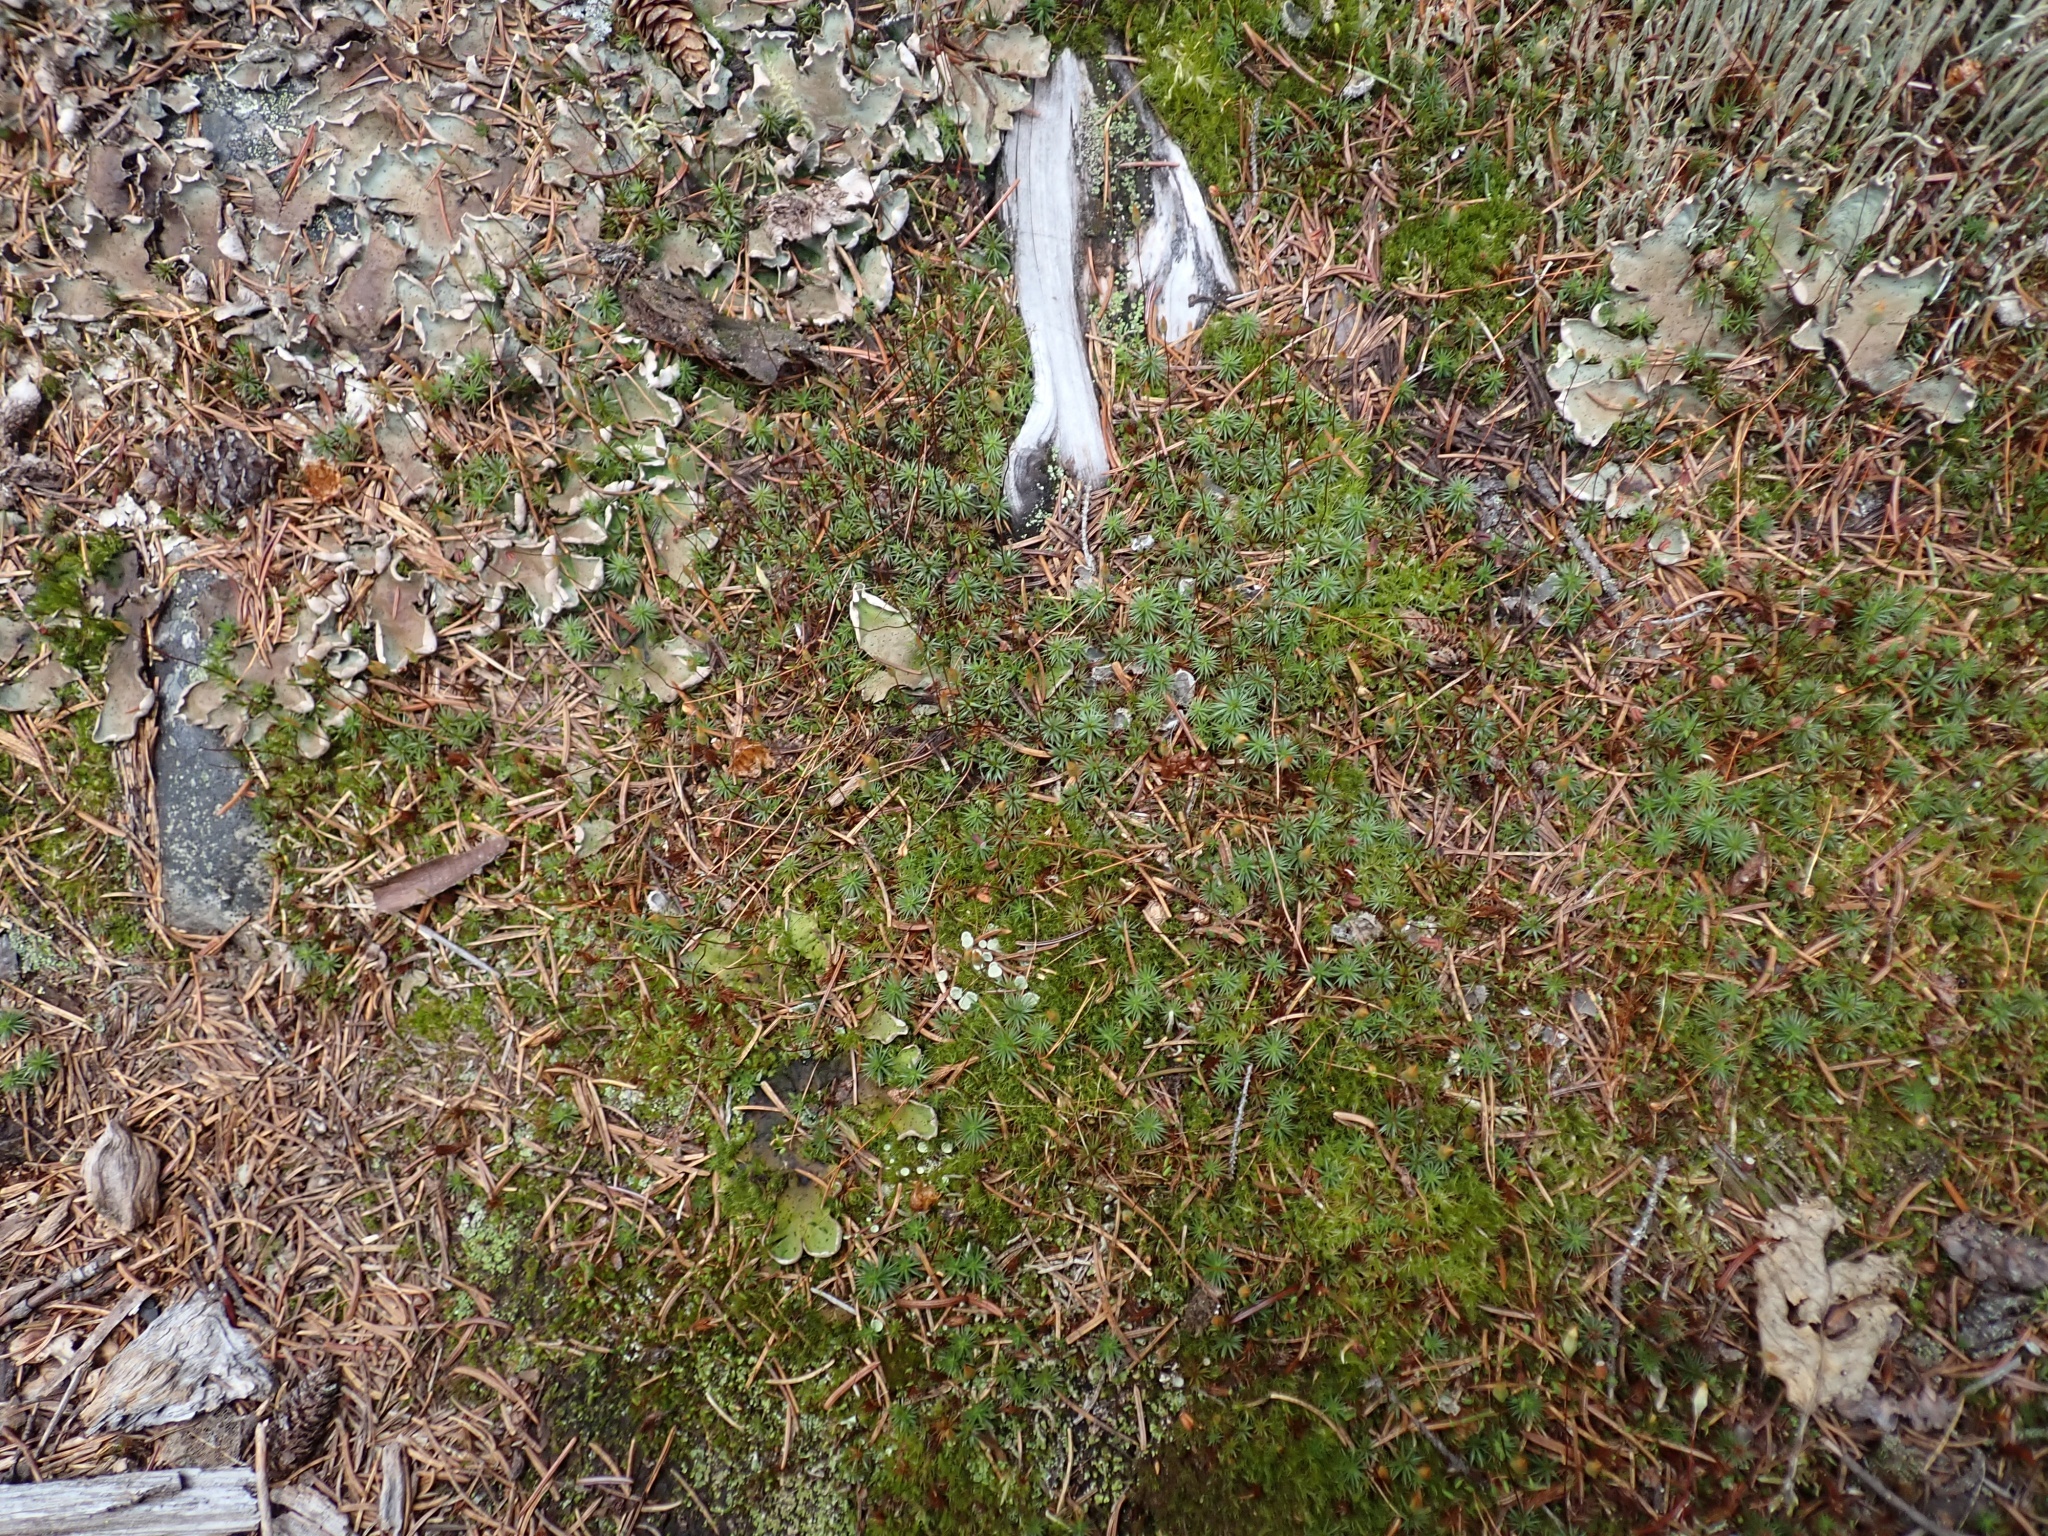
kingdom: Plantae
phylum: Bryophyta
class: Polytrichopsida
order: Polytrichales
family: Polytrichaceae
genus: Polytrichum
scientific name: Polytrichum juniperinum
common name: Juniper haircap moss
